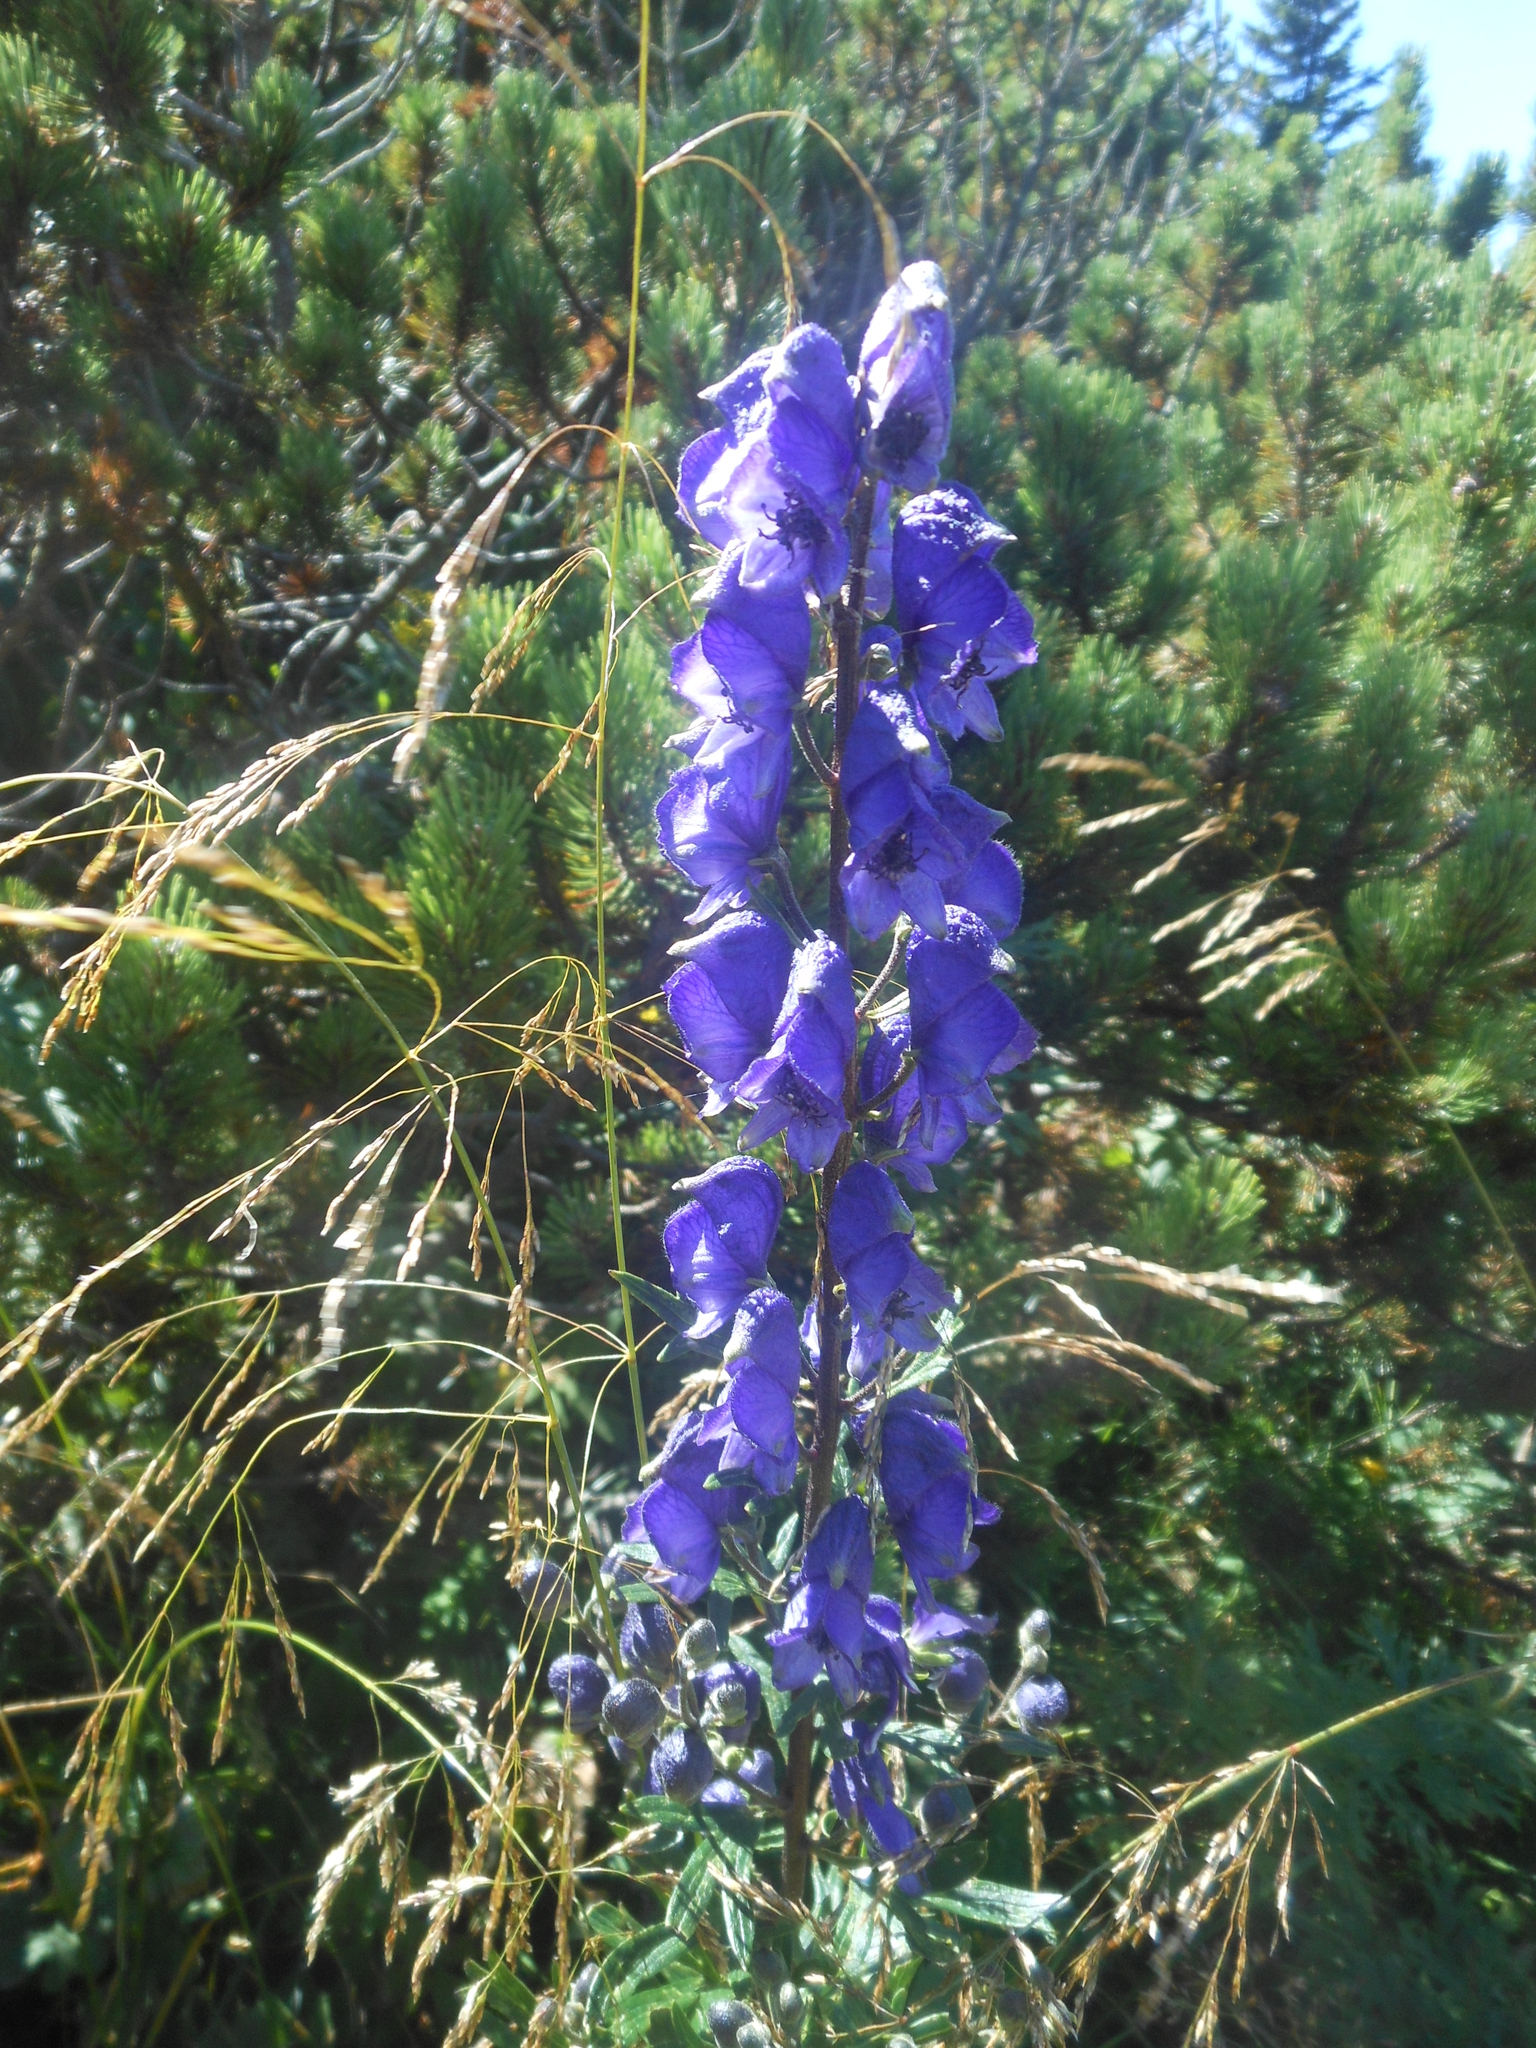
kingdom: Plantae
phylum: Tracheophyta
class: Magnoliopsida
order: Ranunculales
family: Ranunculaceae
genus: Aconitum
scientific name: Aconitum napellus
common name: Garden monkshood
